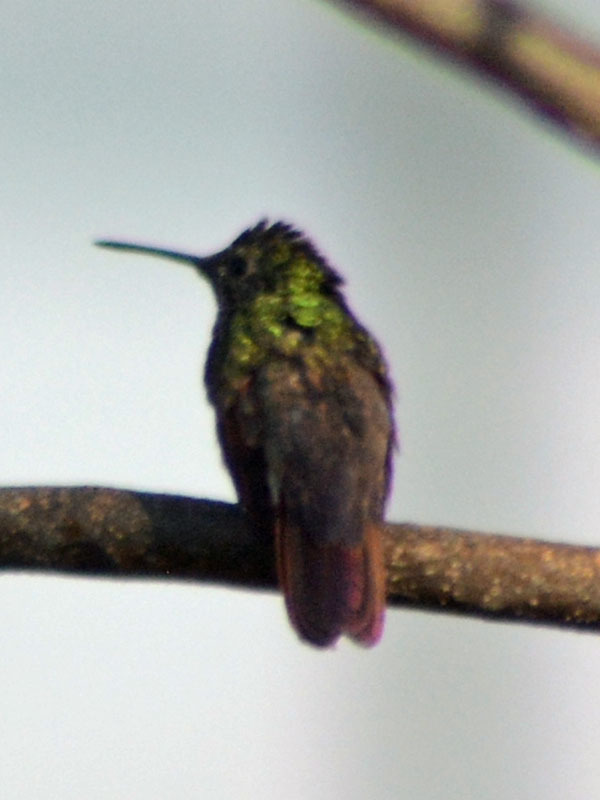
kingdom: Animalia
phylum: Chordata
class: Aves
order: Apodiformes
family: Trochilidae
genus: Saucerottia
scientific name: Saucerottia beryllina
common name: Berylline hummingbird
